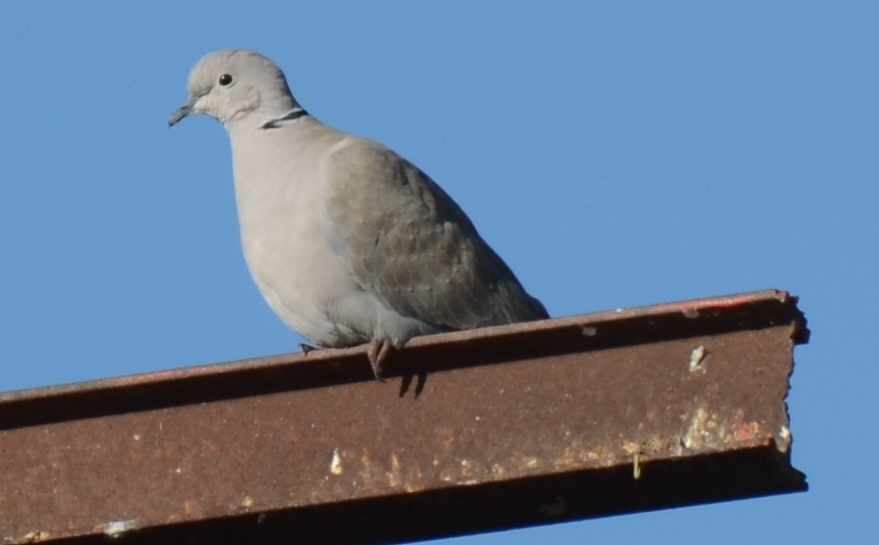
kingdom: Animalia
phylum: Chordata
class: Aves
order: Columbiformes
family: Columbidae
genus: Streptopelia
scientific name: Streptopelia decaocto
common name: Eurasian collared dove
